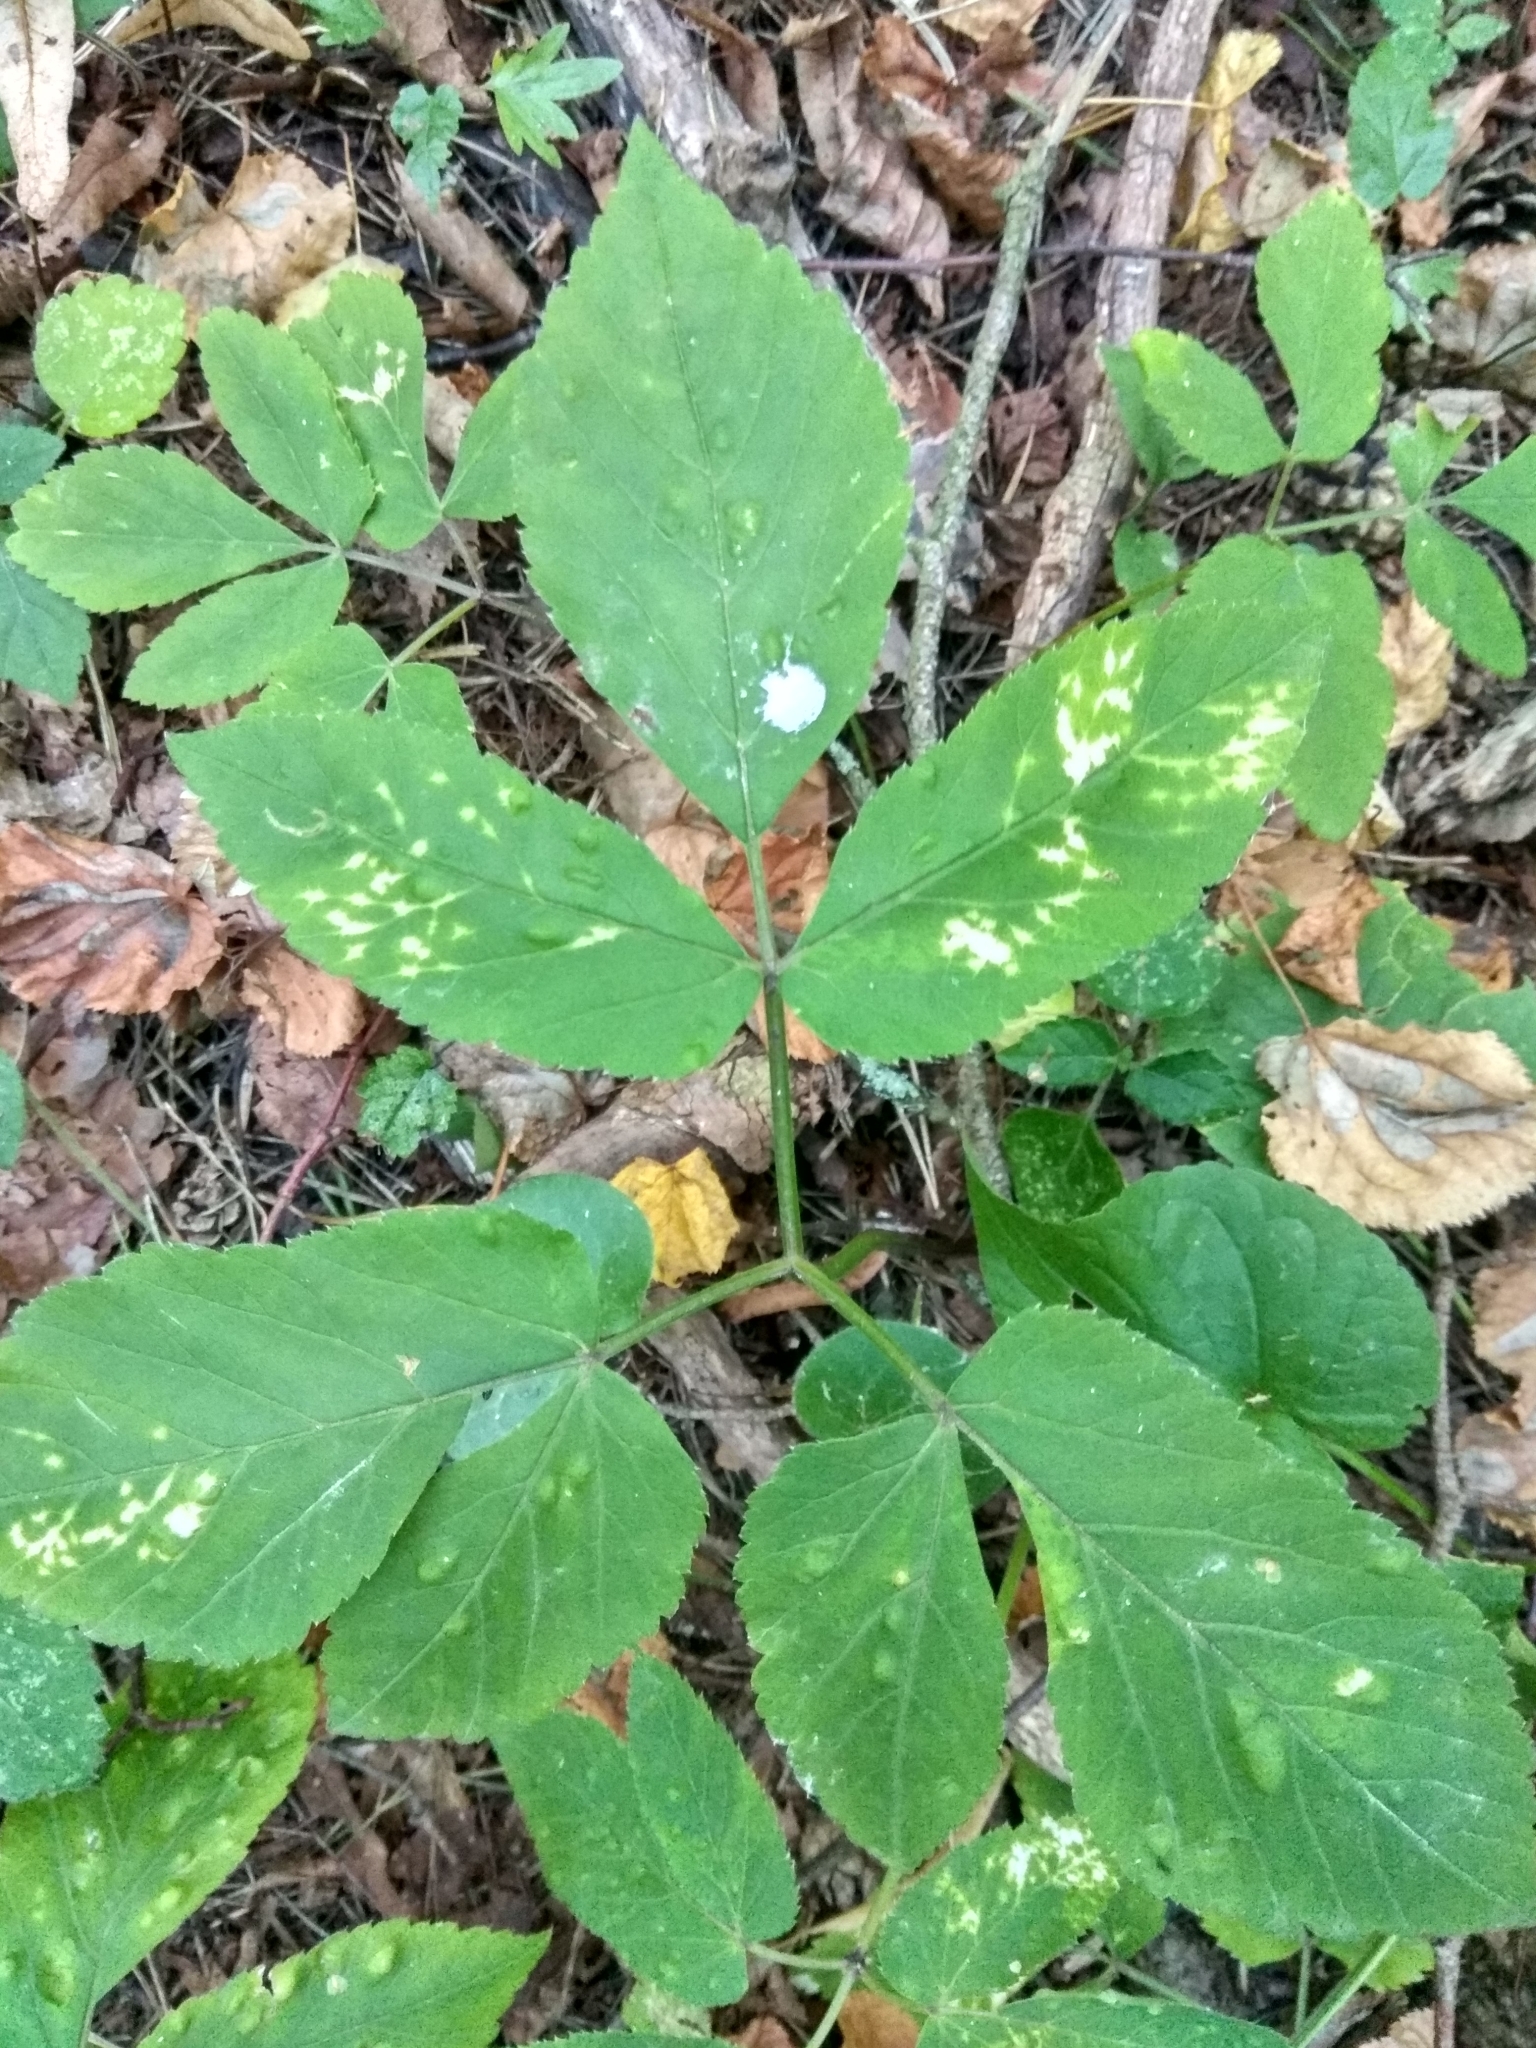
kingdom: Plantae
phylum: Tracheophyta
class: Magnoliopsida
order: Apiales
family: Apiaceae
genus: Aegopodium
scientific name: Aegopodium podagraria
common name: Ground-elder
